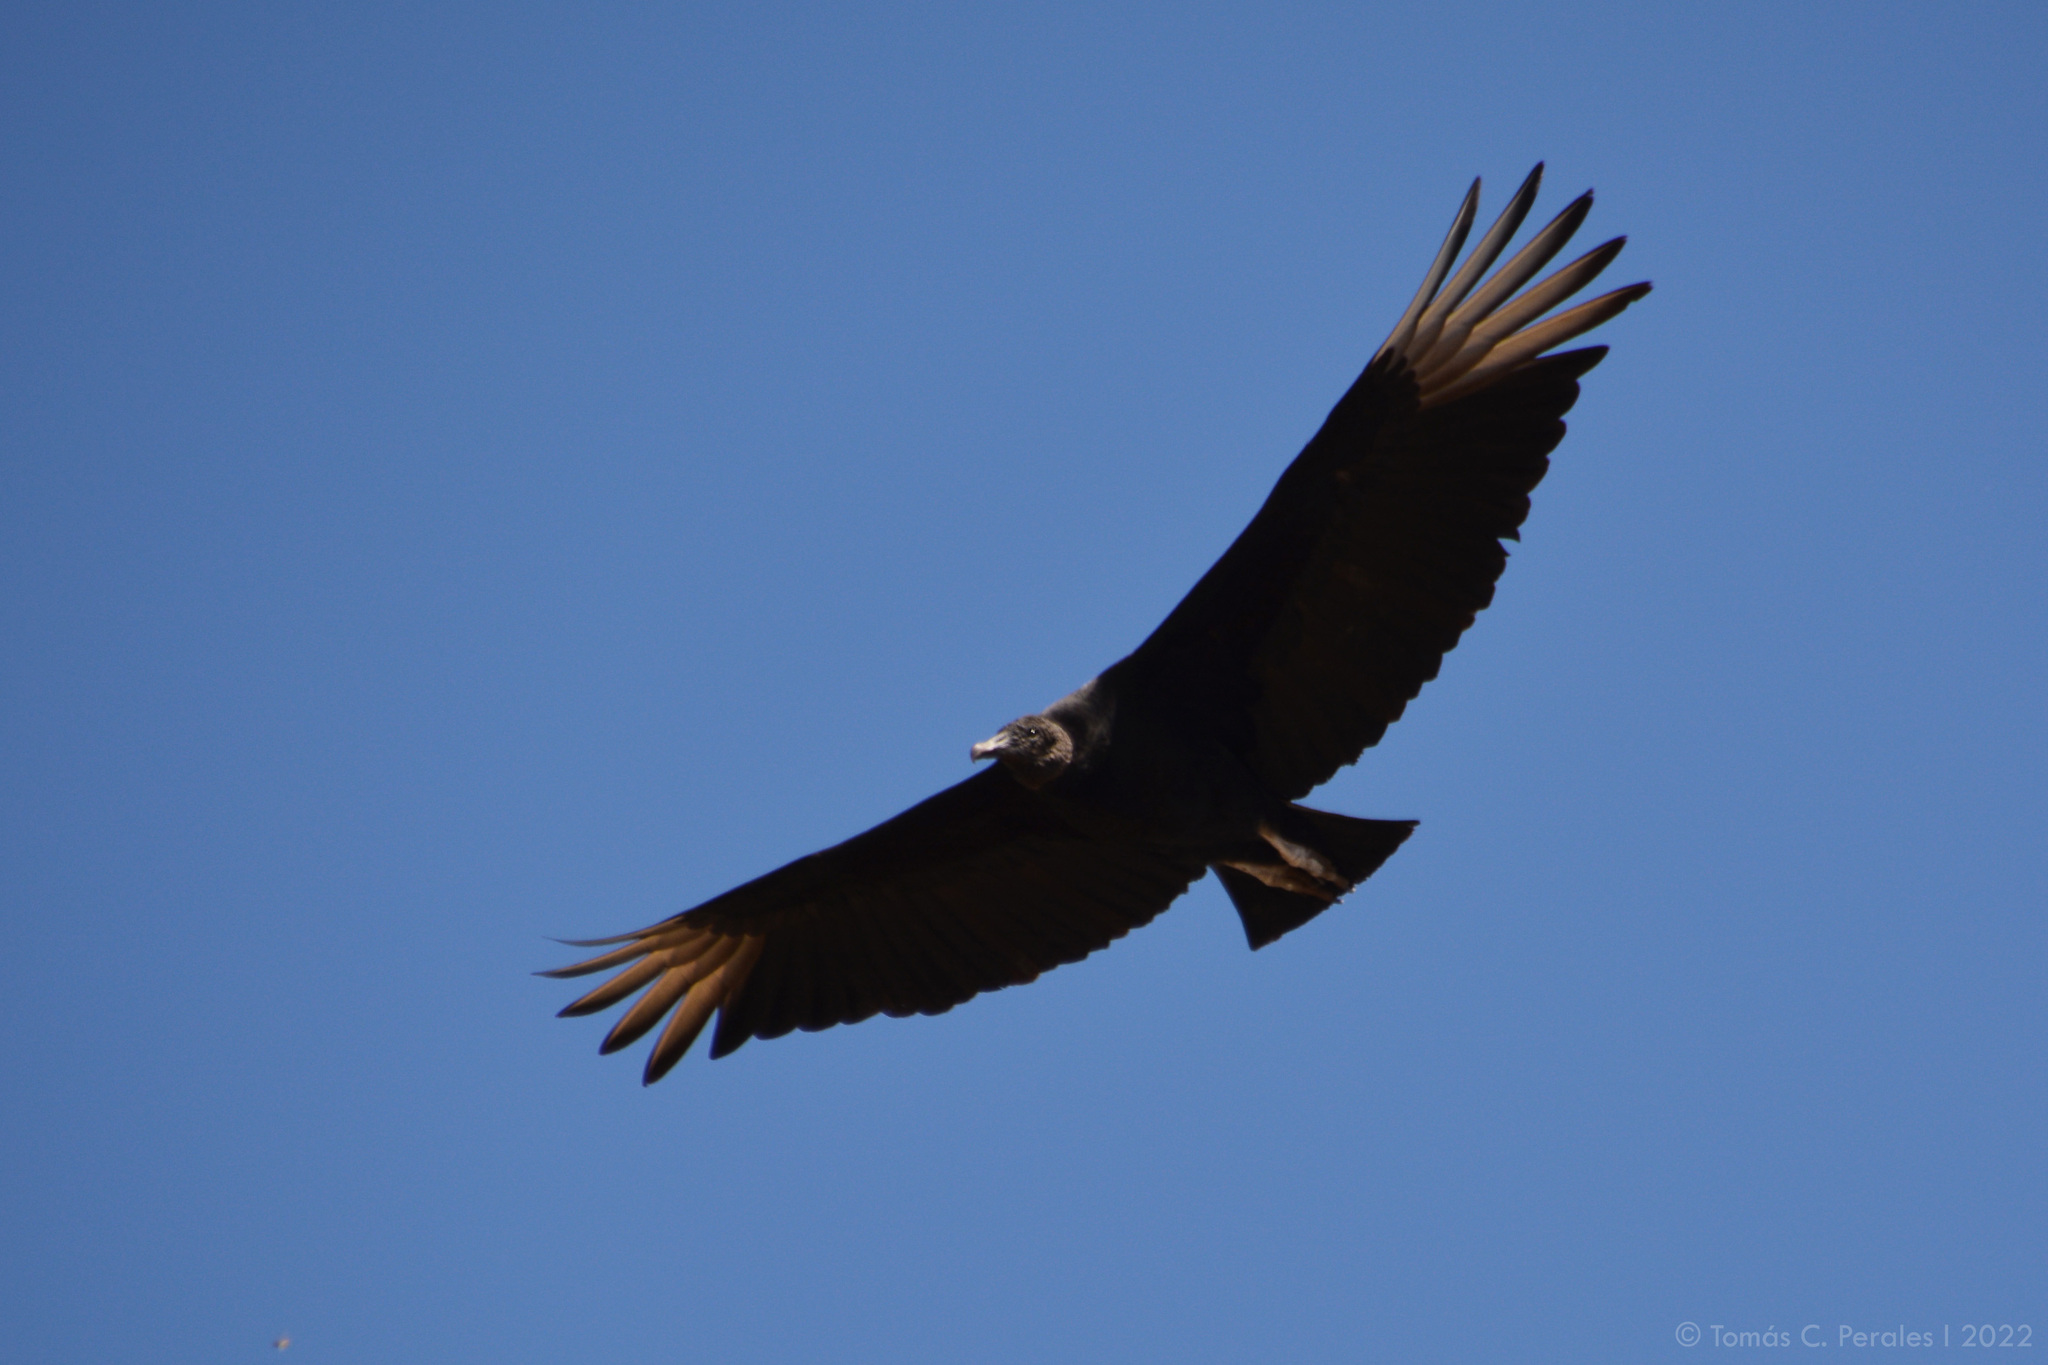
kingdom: Animalia
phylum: Chordata
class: Aves
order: Accipitriformes
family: Cathartidae
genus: Coragyps
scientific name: Coragyps atratus
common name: Black vulture
